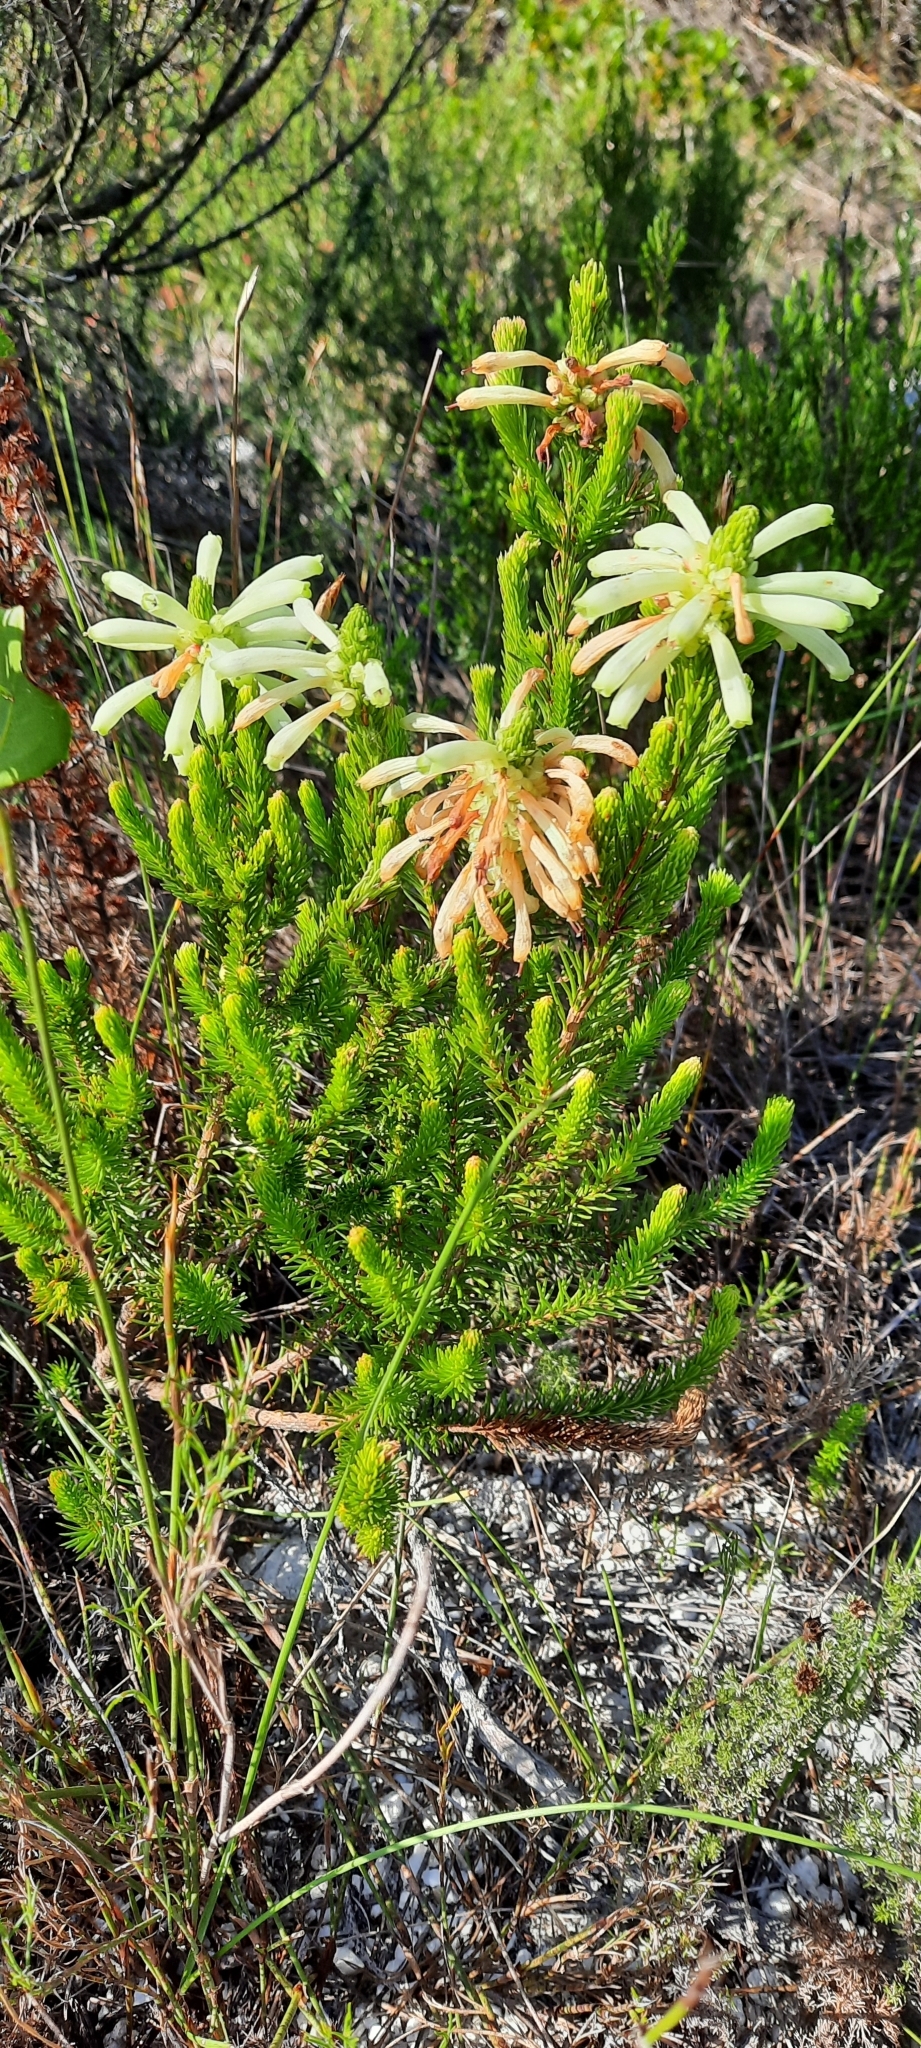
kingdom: Plantae
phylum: Tracheophyta
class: Magnoliopsida
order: Ericales
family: Ericaceae
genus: Erica
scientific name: Erica sessiliflora
